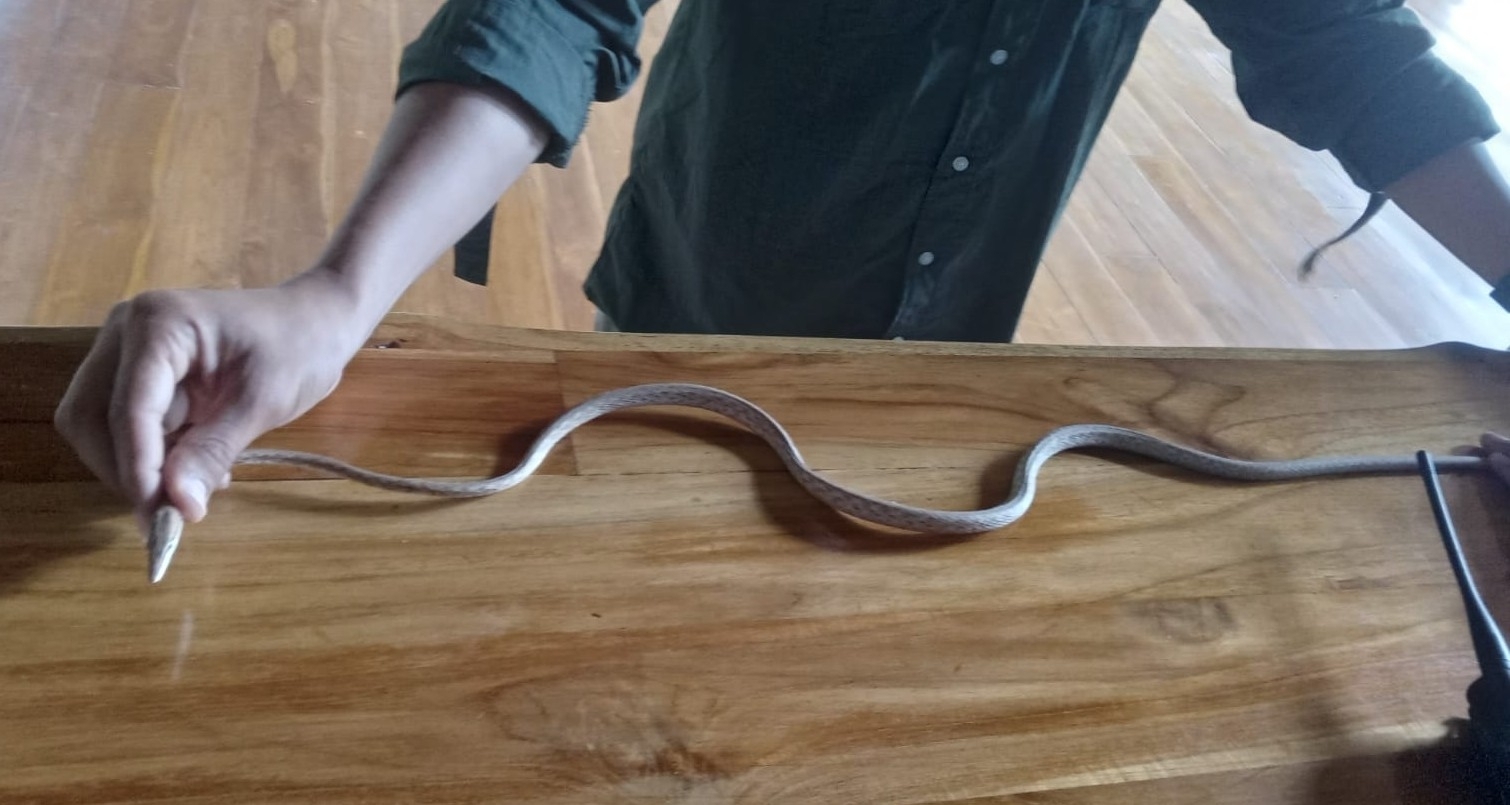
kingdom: Animalia
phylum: Chordata
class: Squamata
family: Colubridae
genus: Oxybelis
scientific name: Oxybelis koehleri
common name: Köhler’s vine snake
